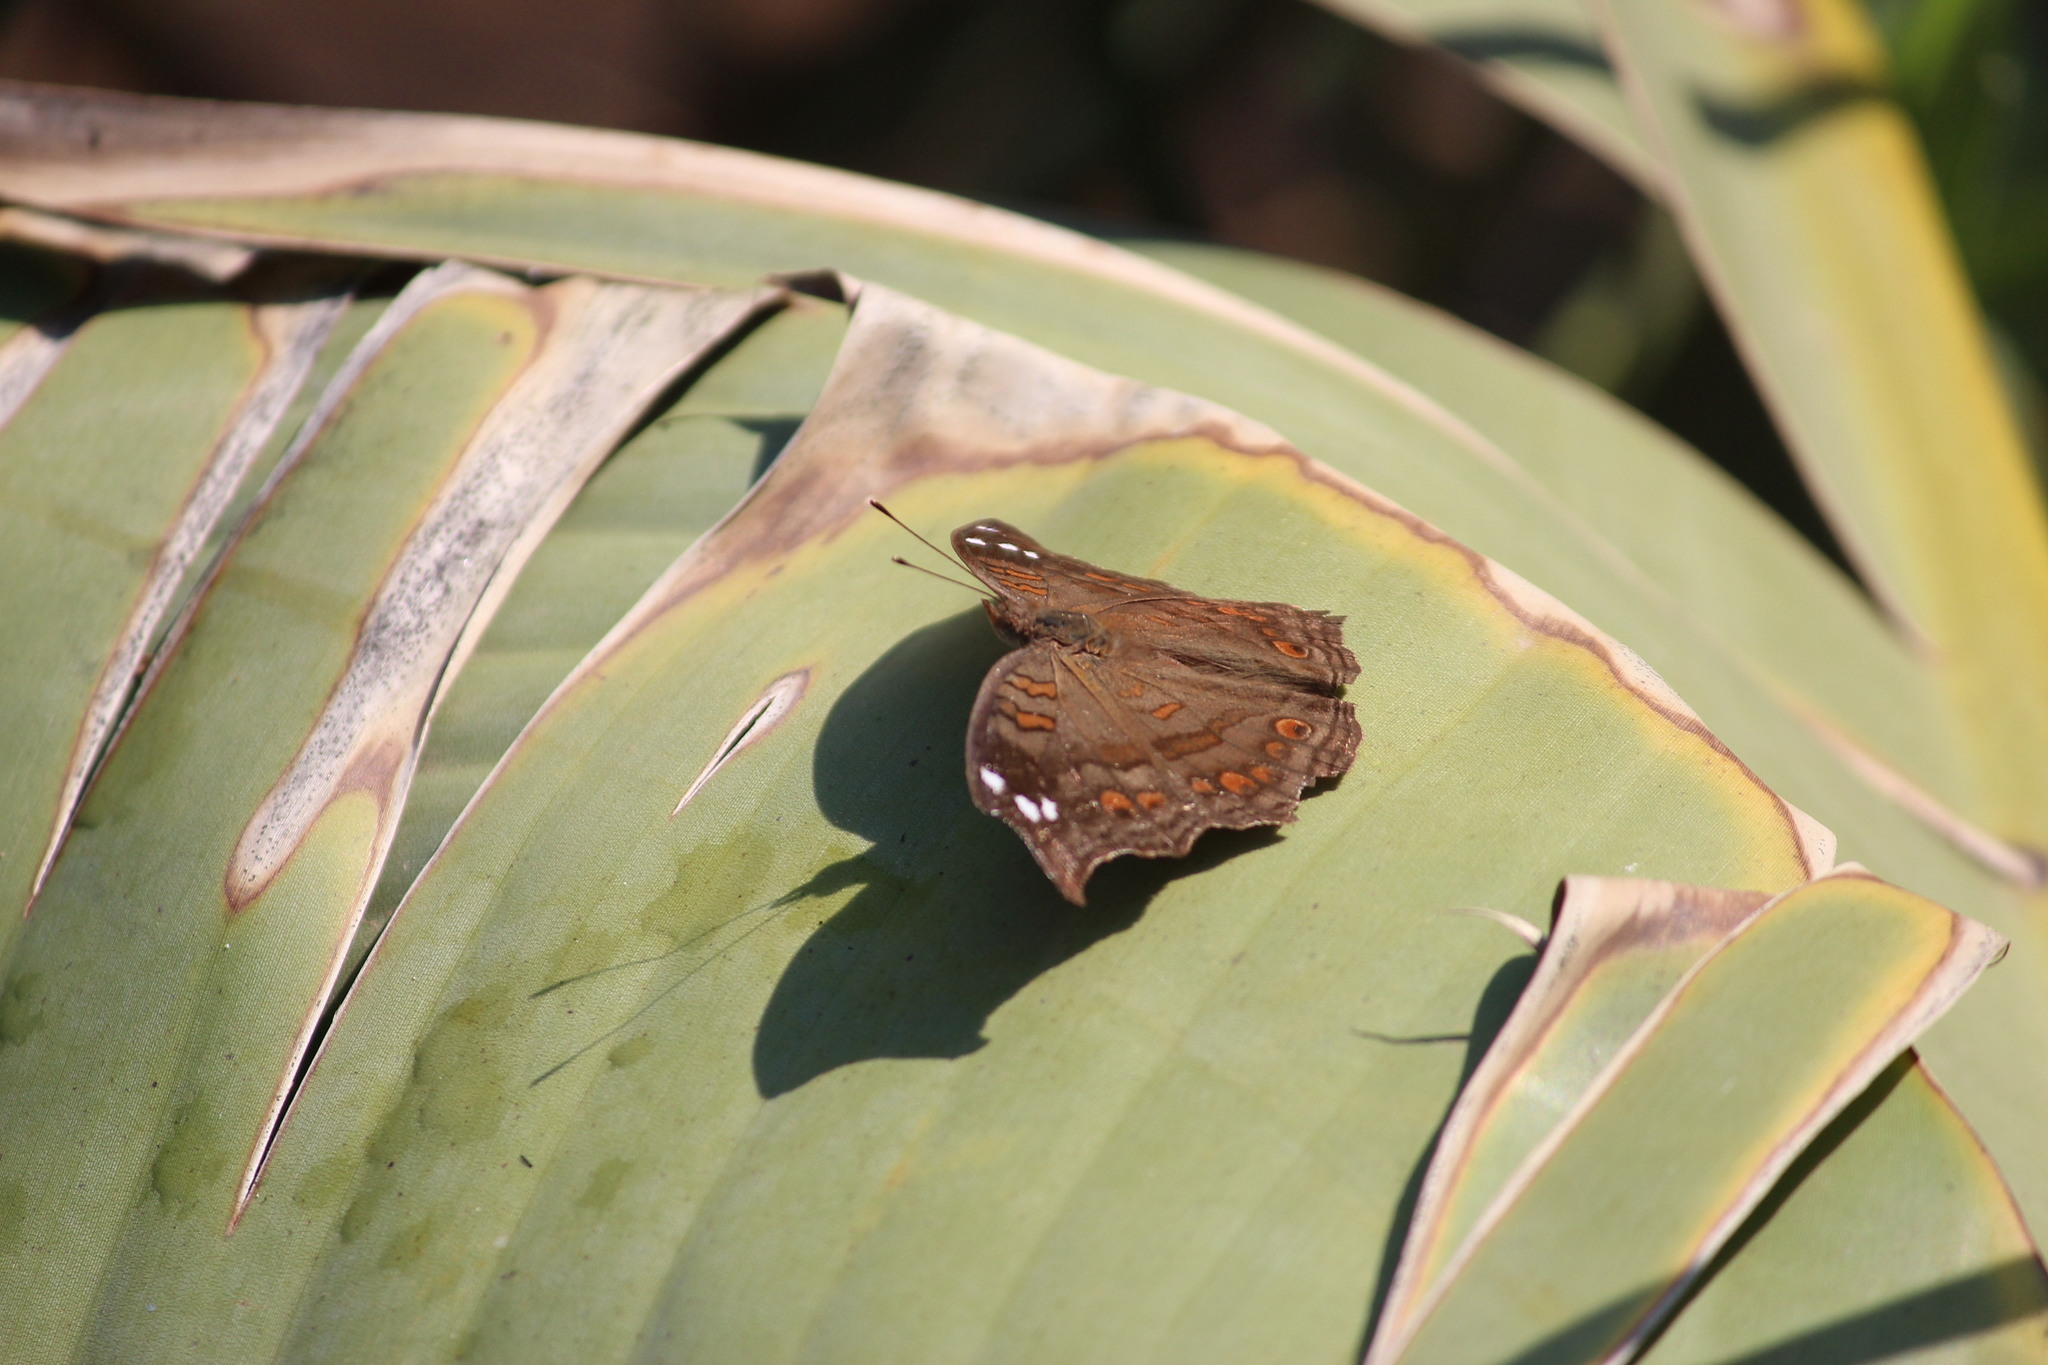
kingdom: Animalia
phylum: Arthropoda
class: Insecta
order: Lepidoptera
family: Nymphalidae
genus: Junonia
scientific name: Junonia natalica
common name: Brown pansy
